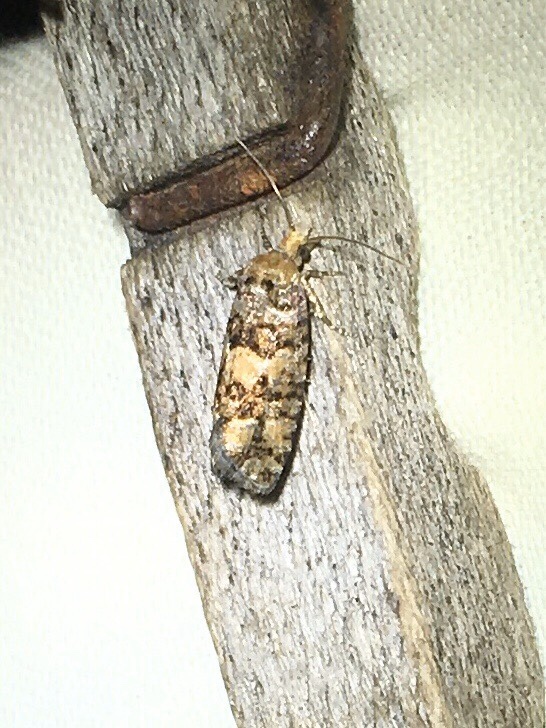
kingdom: Animalia
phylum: Arthropoda
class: Insecta
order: Lepidoptera
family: Tortricidae
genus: Eucopina
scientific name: Eucopina tocullionana
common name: White pinecone borer moth
